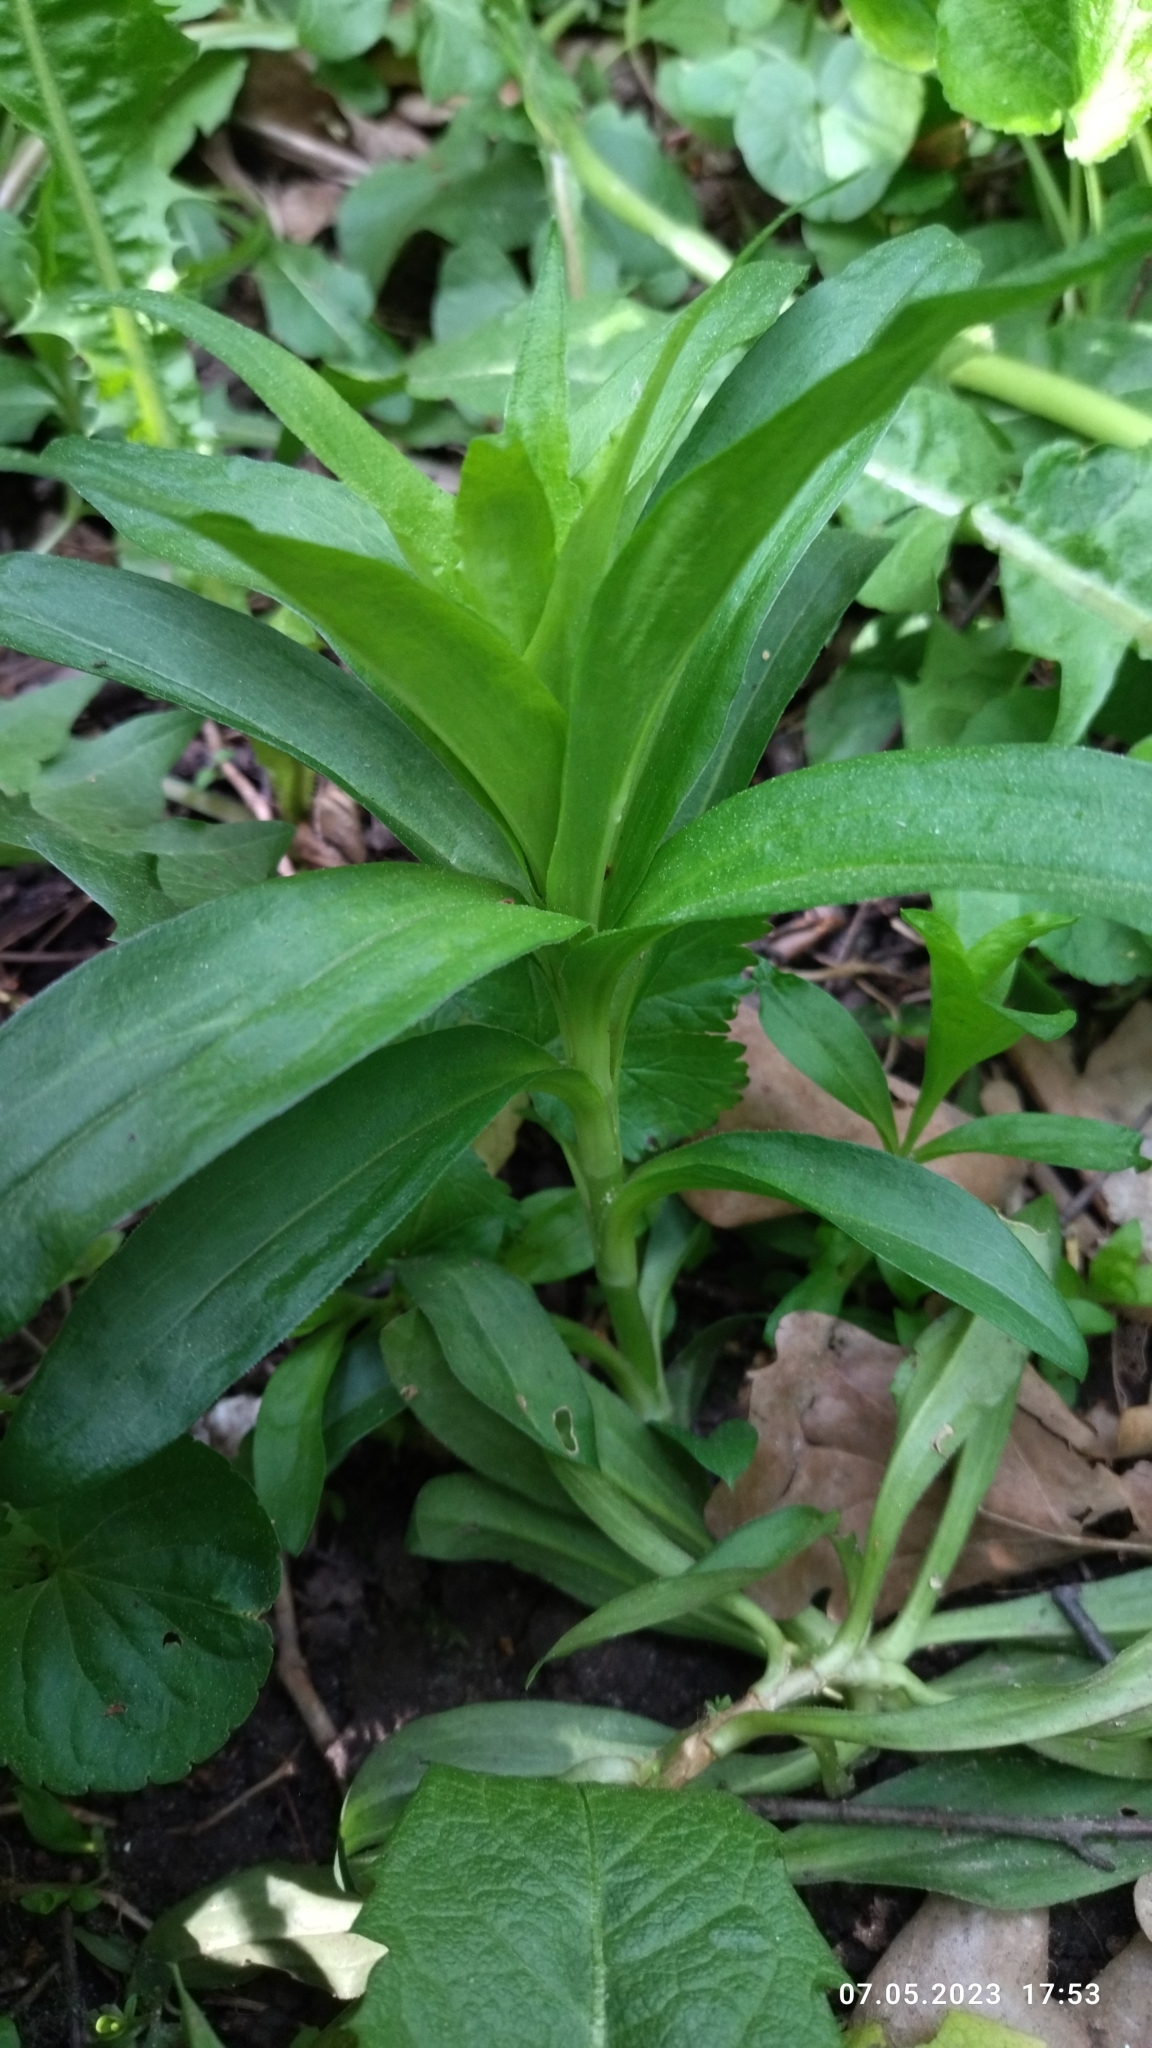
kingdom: Plantae
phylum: Tracheophyta
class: Magnoliopsida
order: Caryophyllales
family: Caryophyllaceae
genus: Dianthus
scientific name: Dianthus barbatus
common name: Sweet-william
